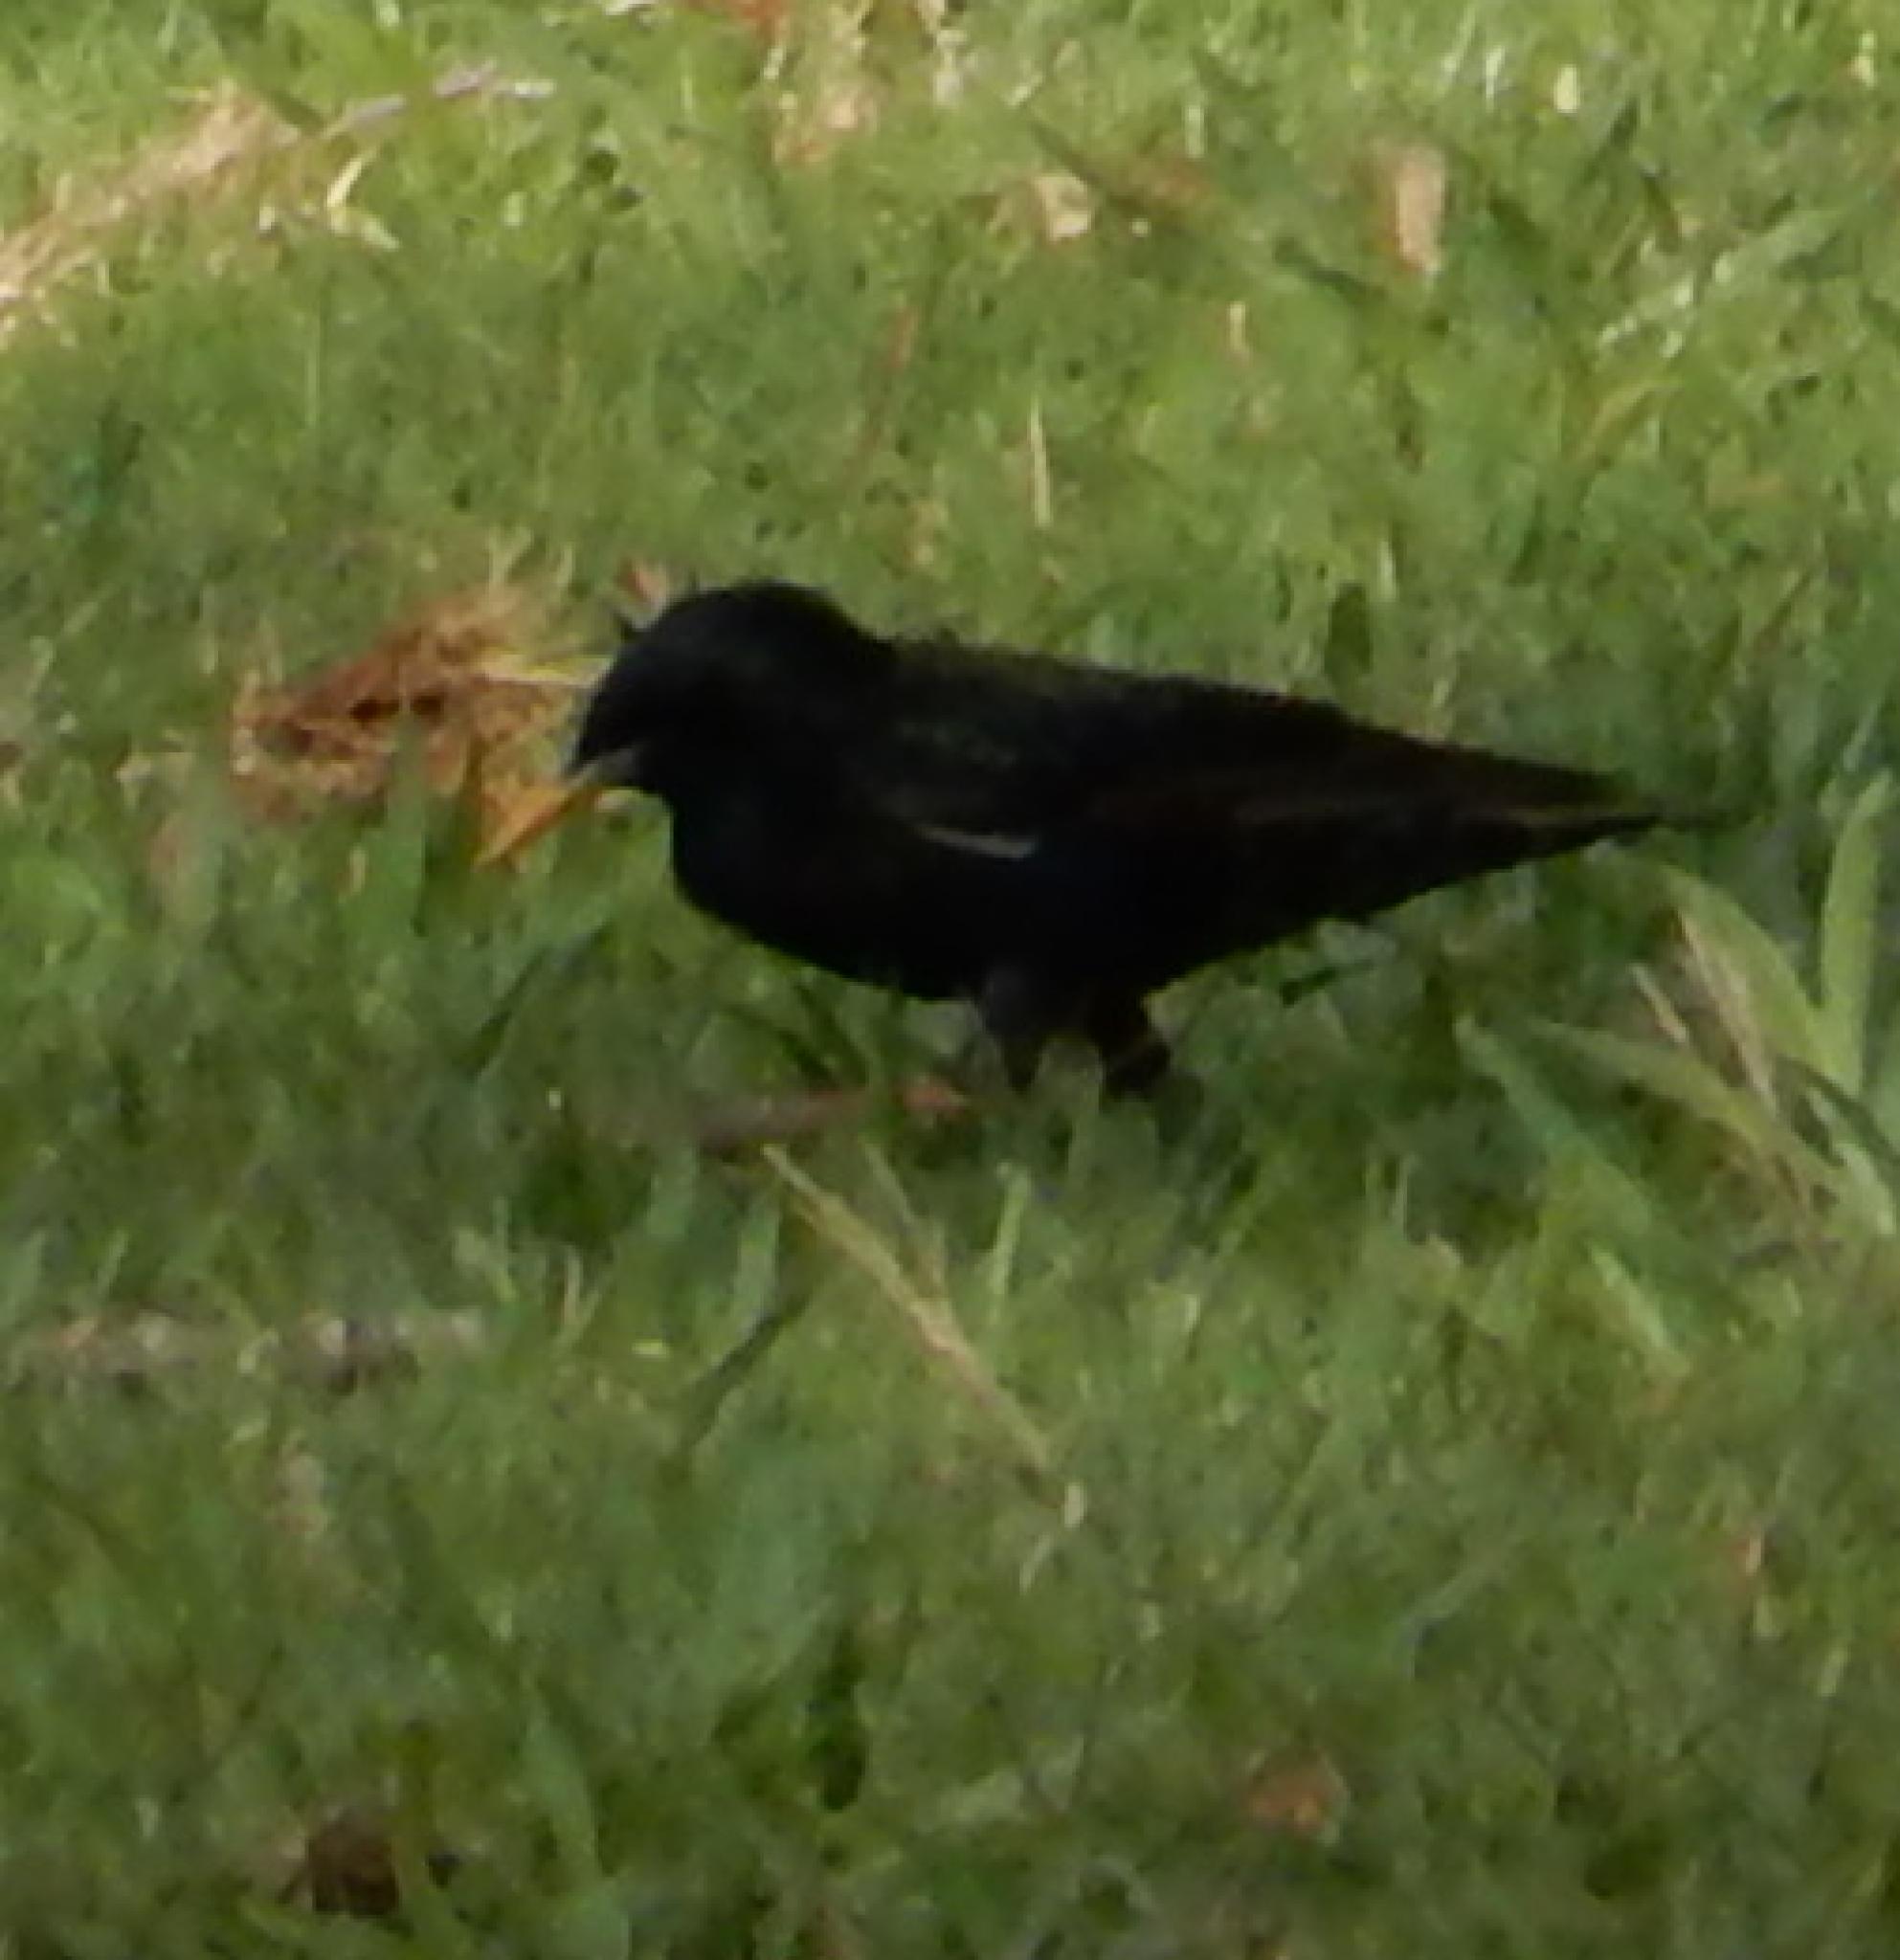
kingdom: Animalia
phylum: Chordata
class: Aves
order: Passeriformes
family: Sturnidae
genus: Sturnus
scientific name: Sturnus vulgaris
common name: Common starling
